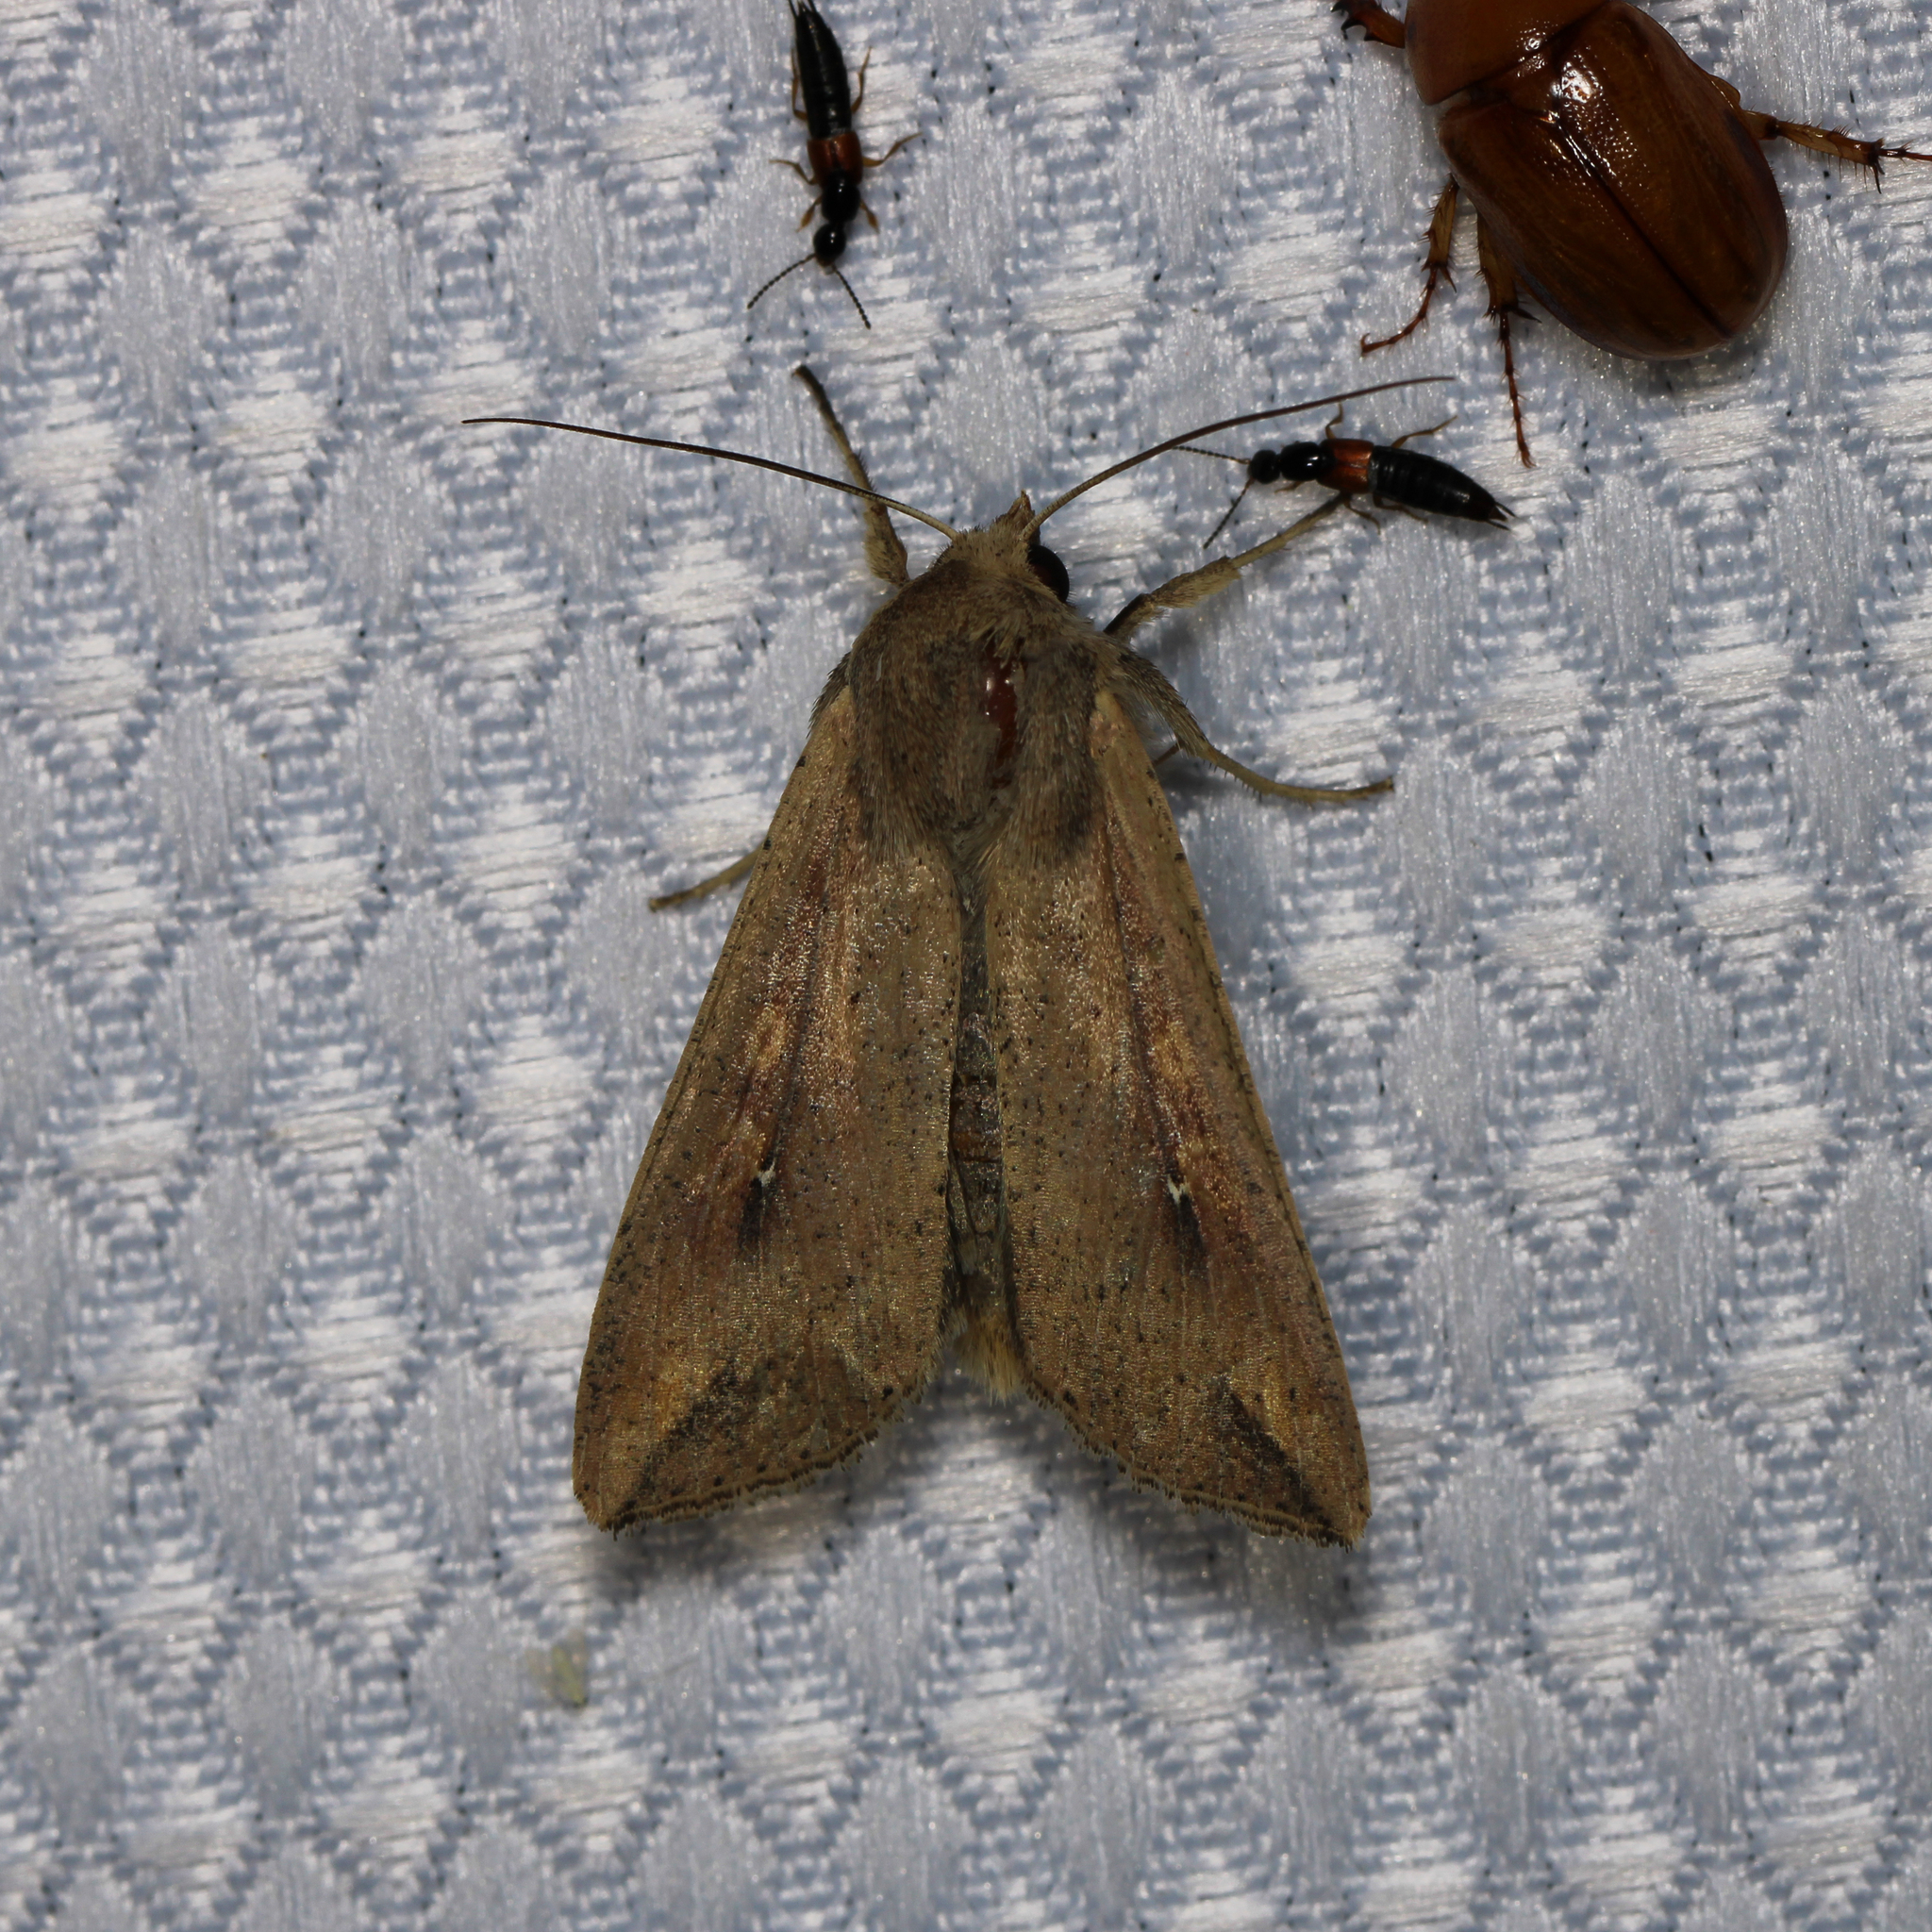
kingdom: Animalia
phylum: Arthropoda
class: Insecta
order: Lepidoptera
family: Noctuidae
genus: Mythimna
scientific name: Mythimna unipuncta
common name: White-speck
